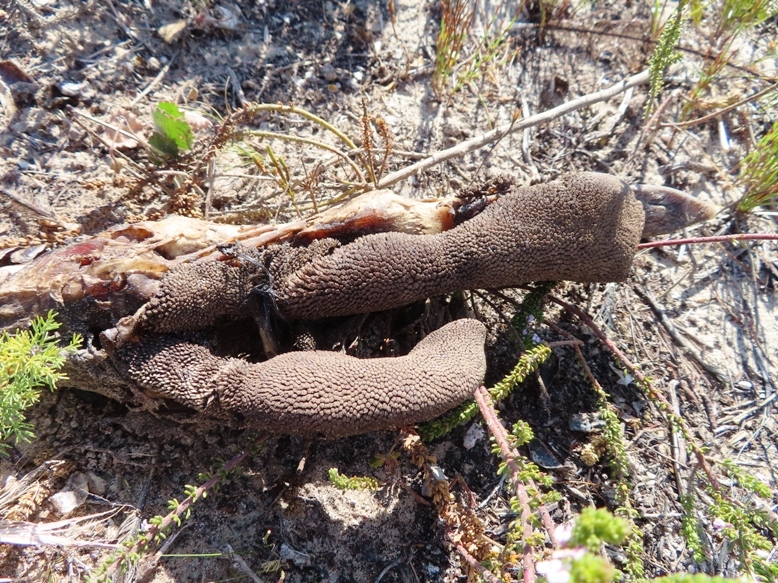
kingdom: Animalia
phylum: Chordata
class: Aves
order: Struthioniformes
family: Struthionidae
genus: Struthio
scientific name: Struthio camelus
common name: Common ostrich
